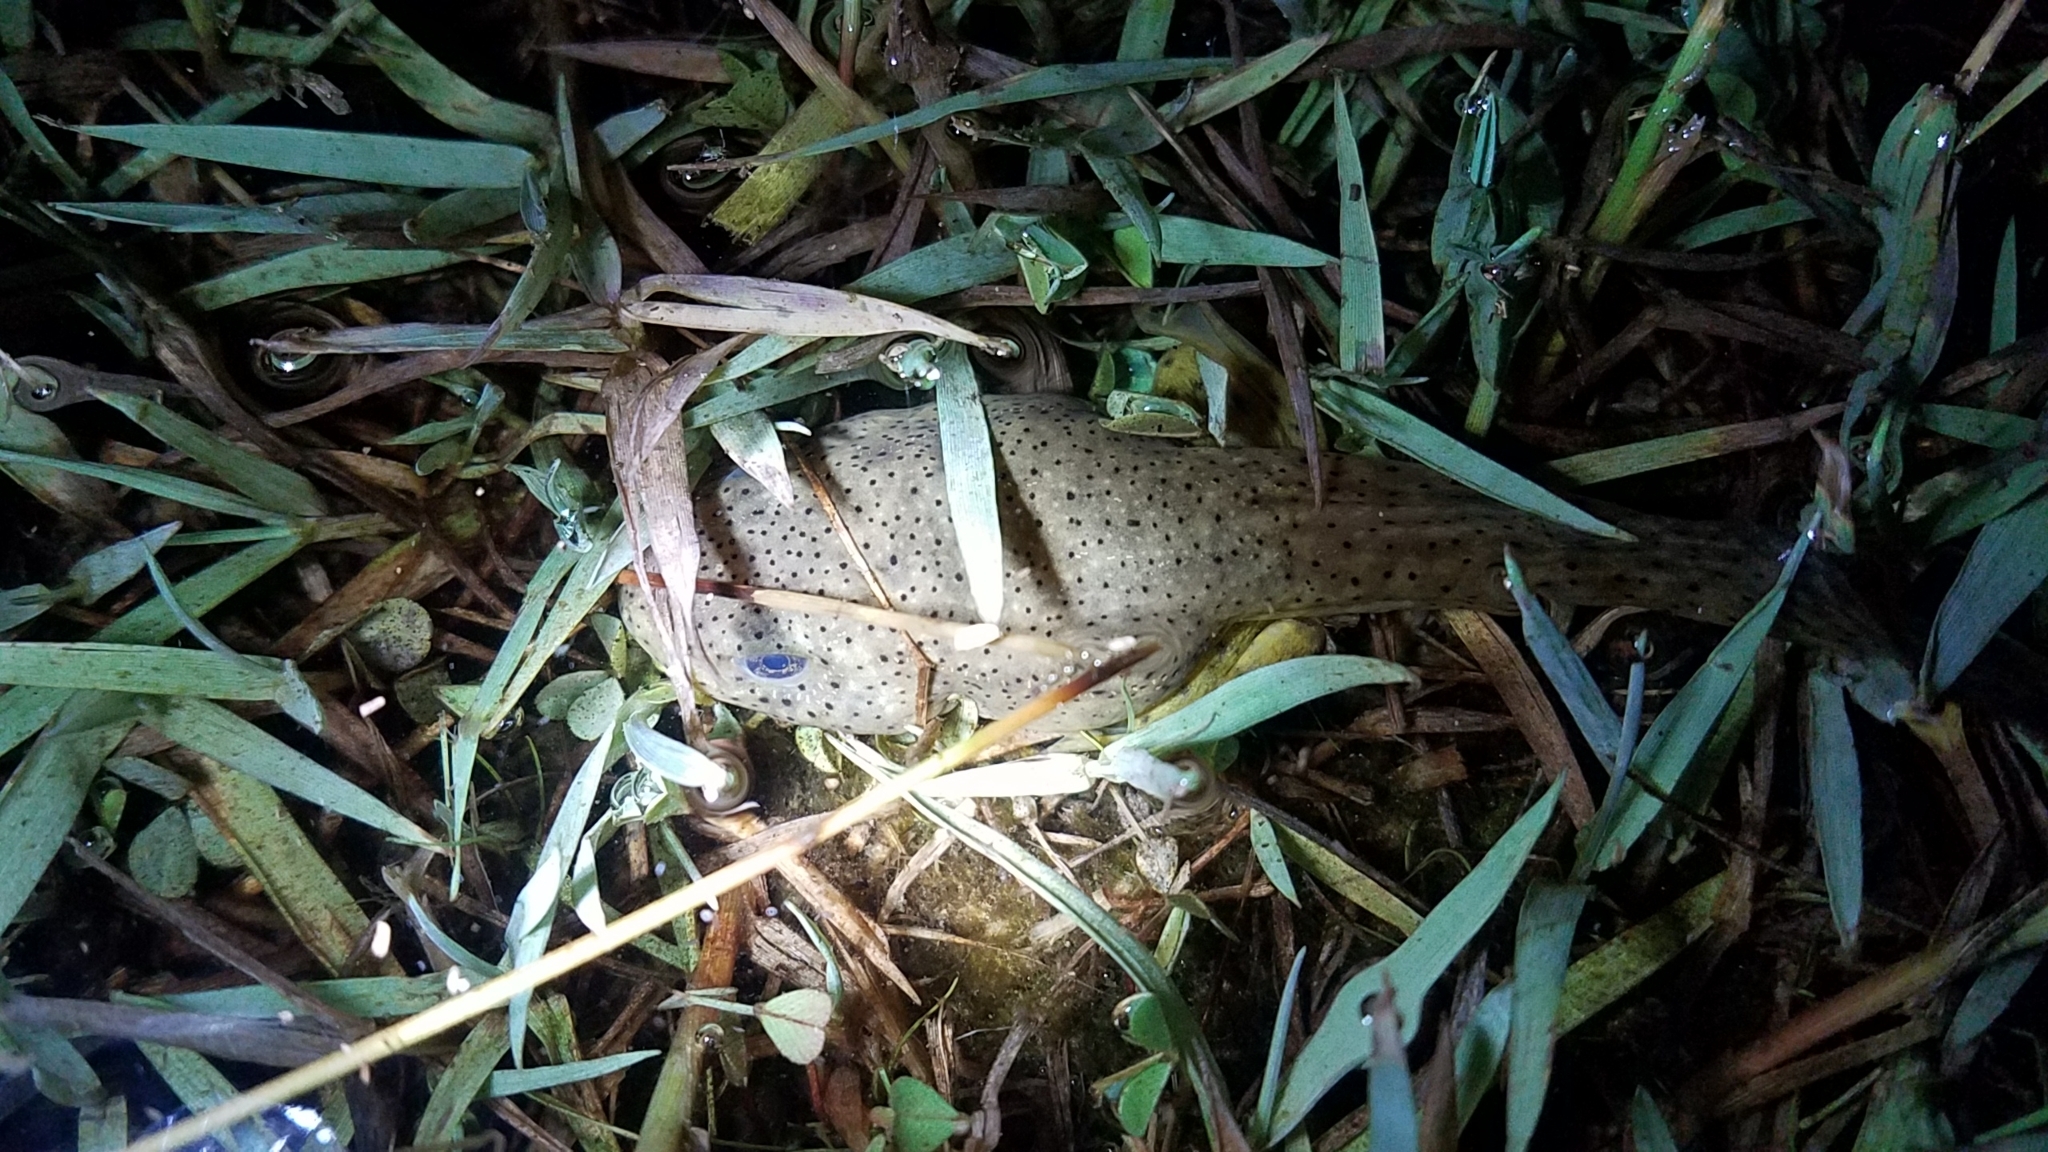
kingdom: Animalia
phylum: Chordata
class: Amphibia
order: Anura
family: Ranidae
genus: Lithobates
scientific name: Lithobates catesbeianus
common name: American bullfrog
